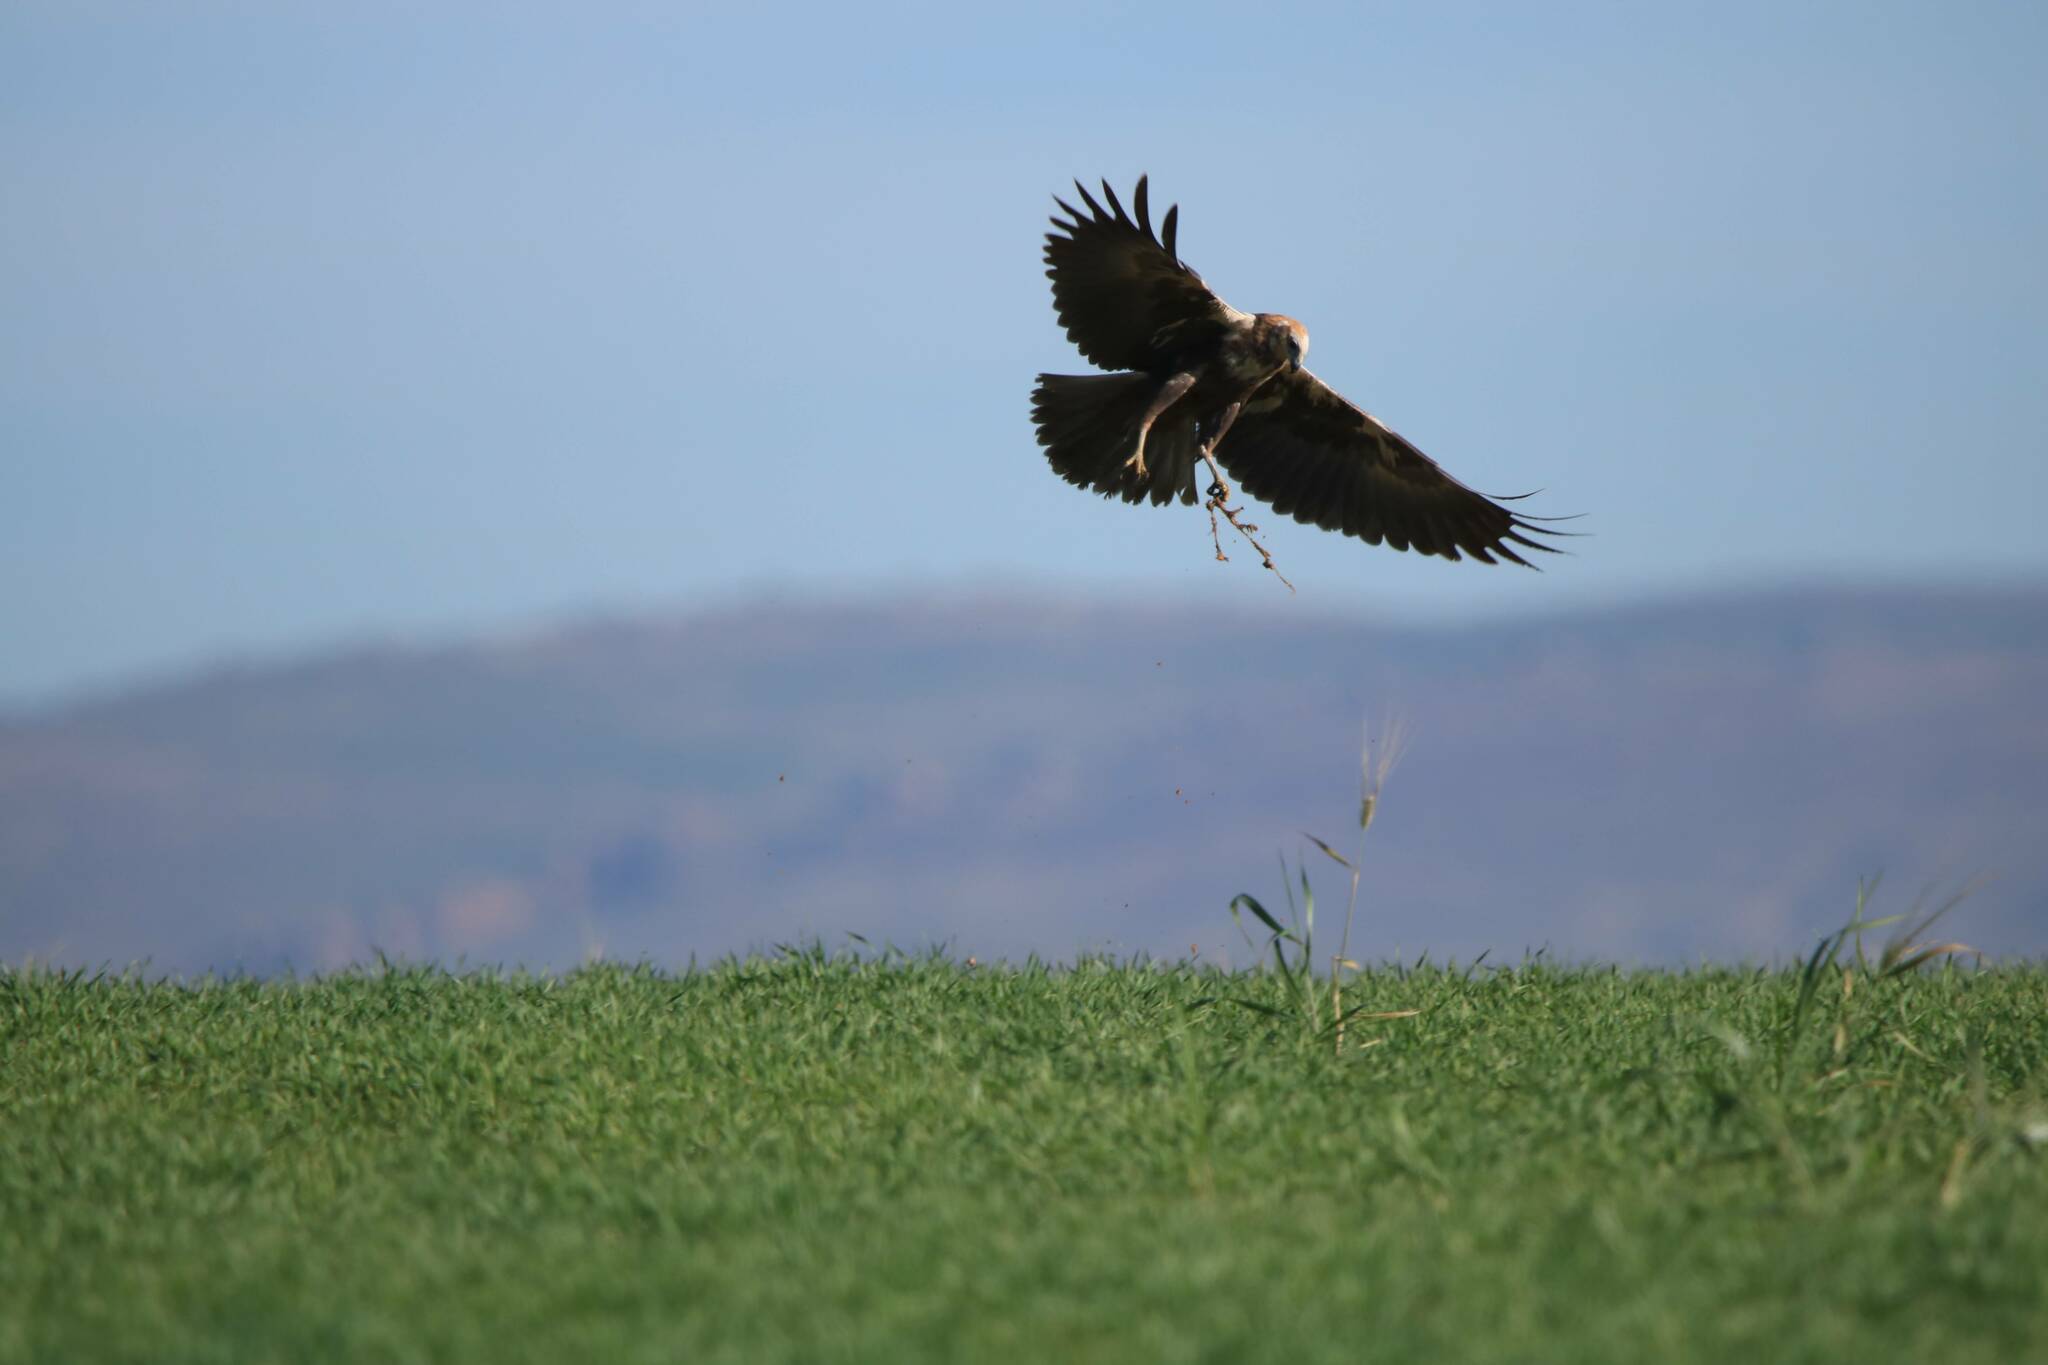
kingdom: Animalia
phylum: Chordata
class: Aves
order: Accipitriformes
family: Accipitridae
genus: Circus
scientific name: Circus aeruginosus
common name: Western marsh harrier
